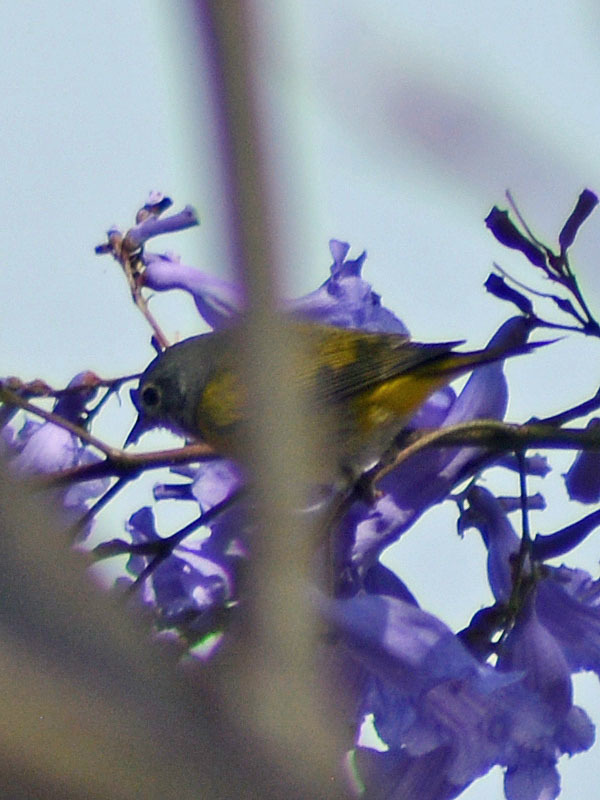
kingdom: Animalia
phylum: Chordata
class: Aves
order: Passeriformes
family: Parulidae
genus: Leiothlypis
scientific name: Leiothlypis ruficapilla
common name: Nashville warbler
